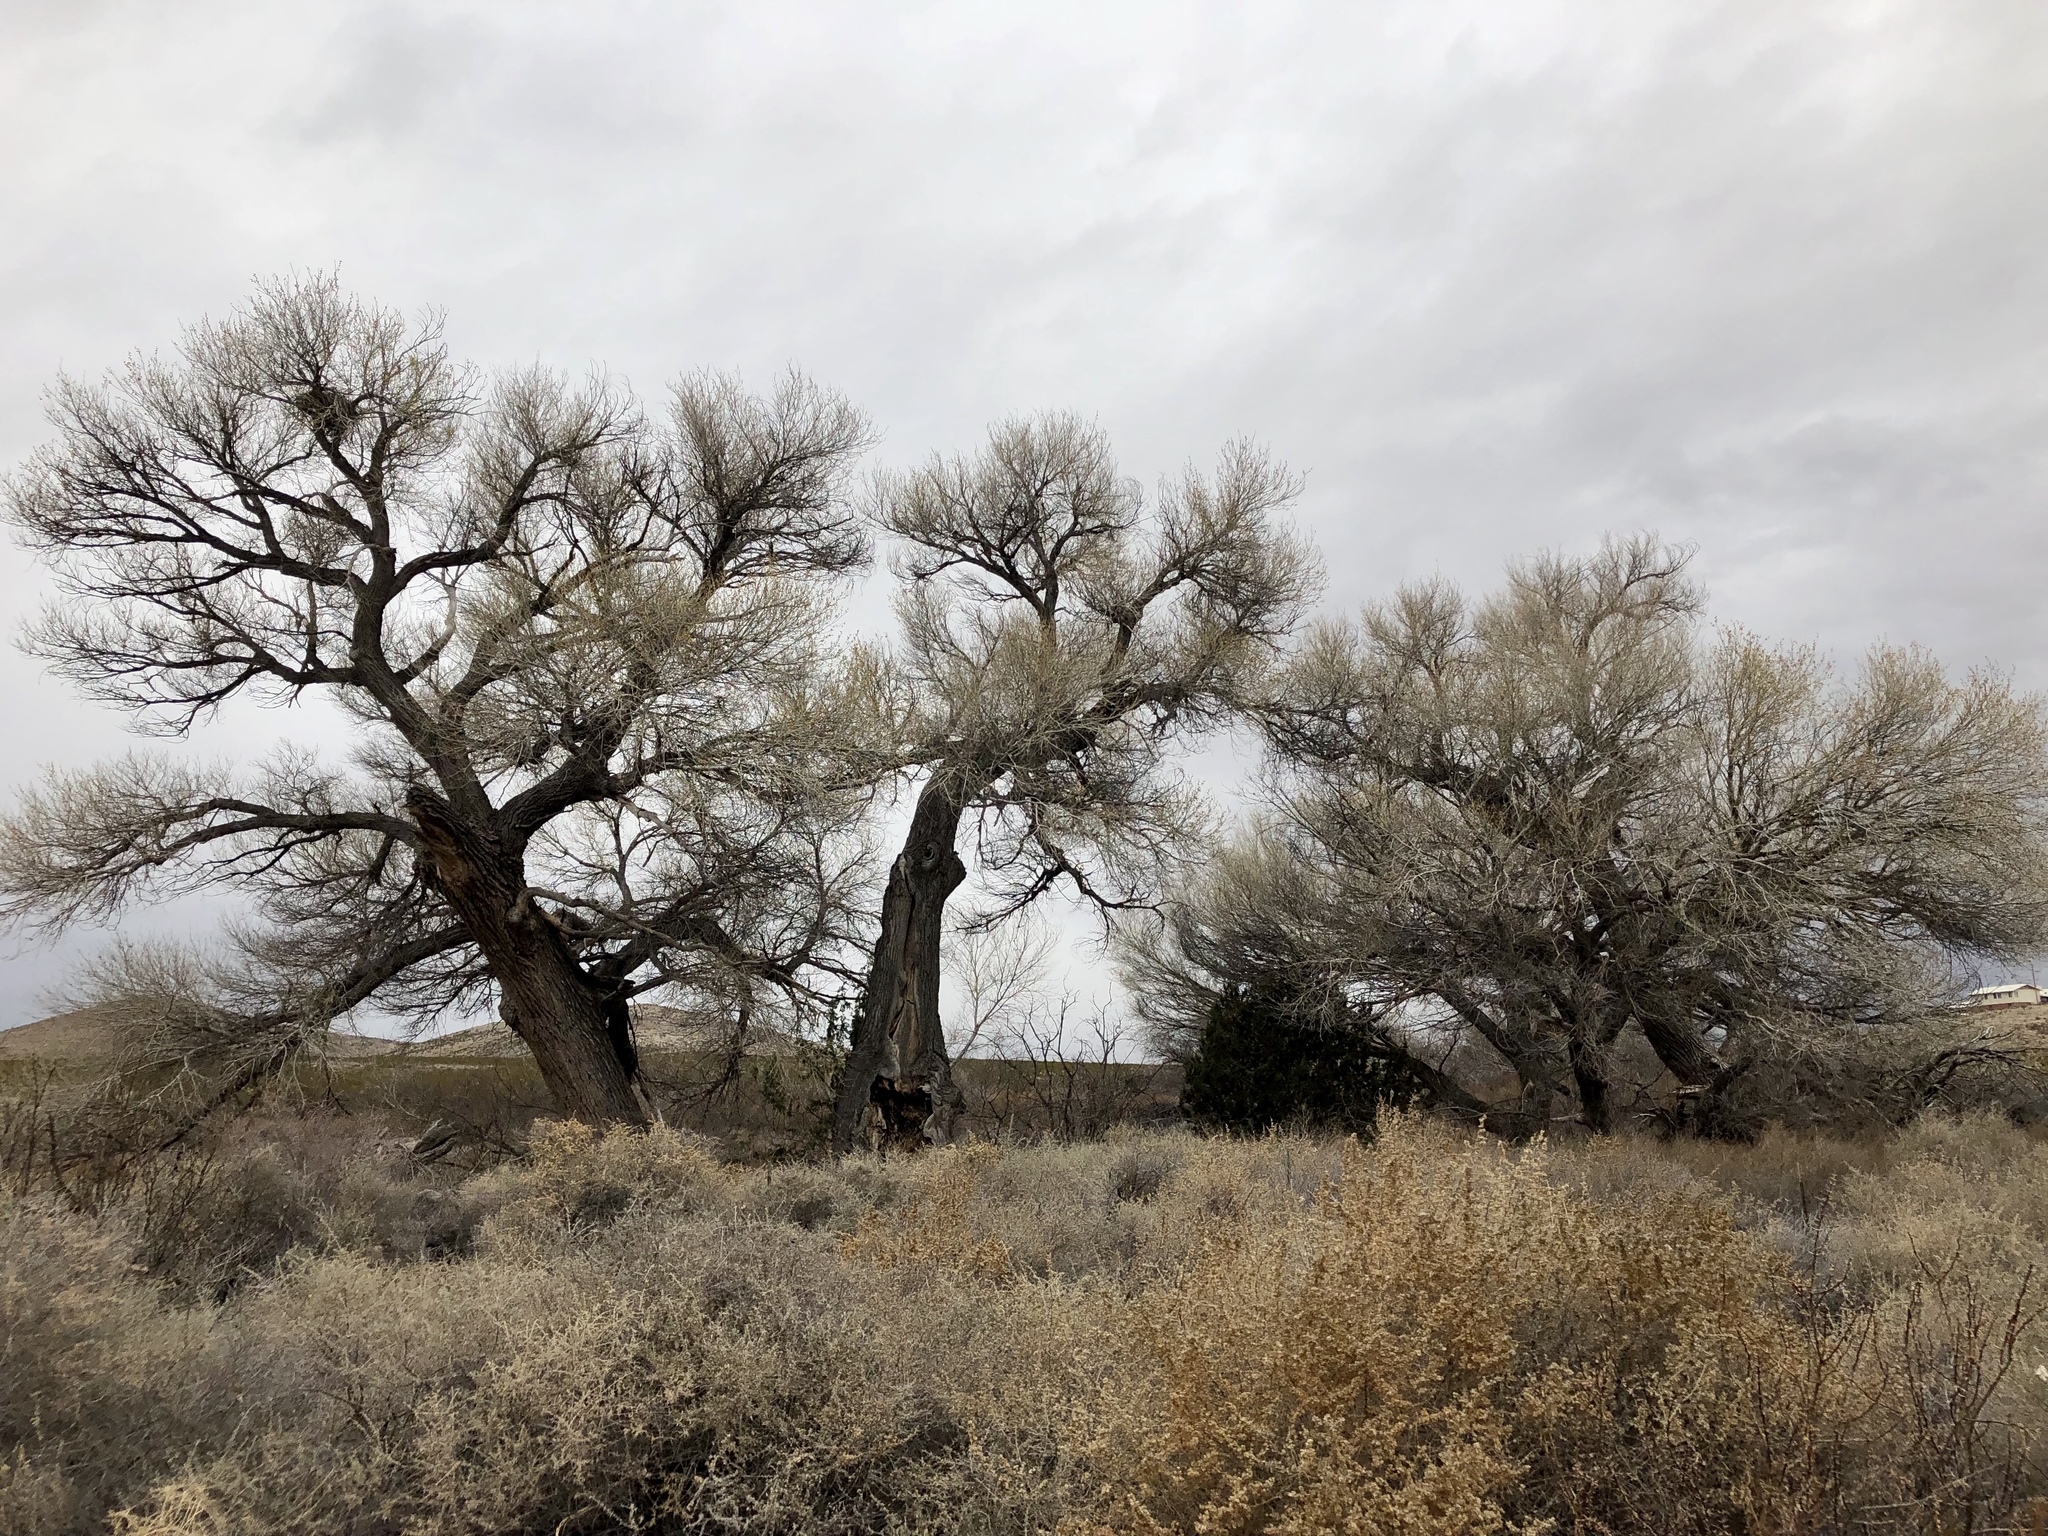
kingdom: Plantae
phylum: Tracheophyta
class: Magnoliopsida
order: Malpighiales
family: Salicaceae
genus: Populus
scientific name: Populus fremontii
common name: Fremont's cottonwood
